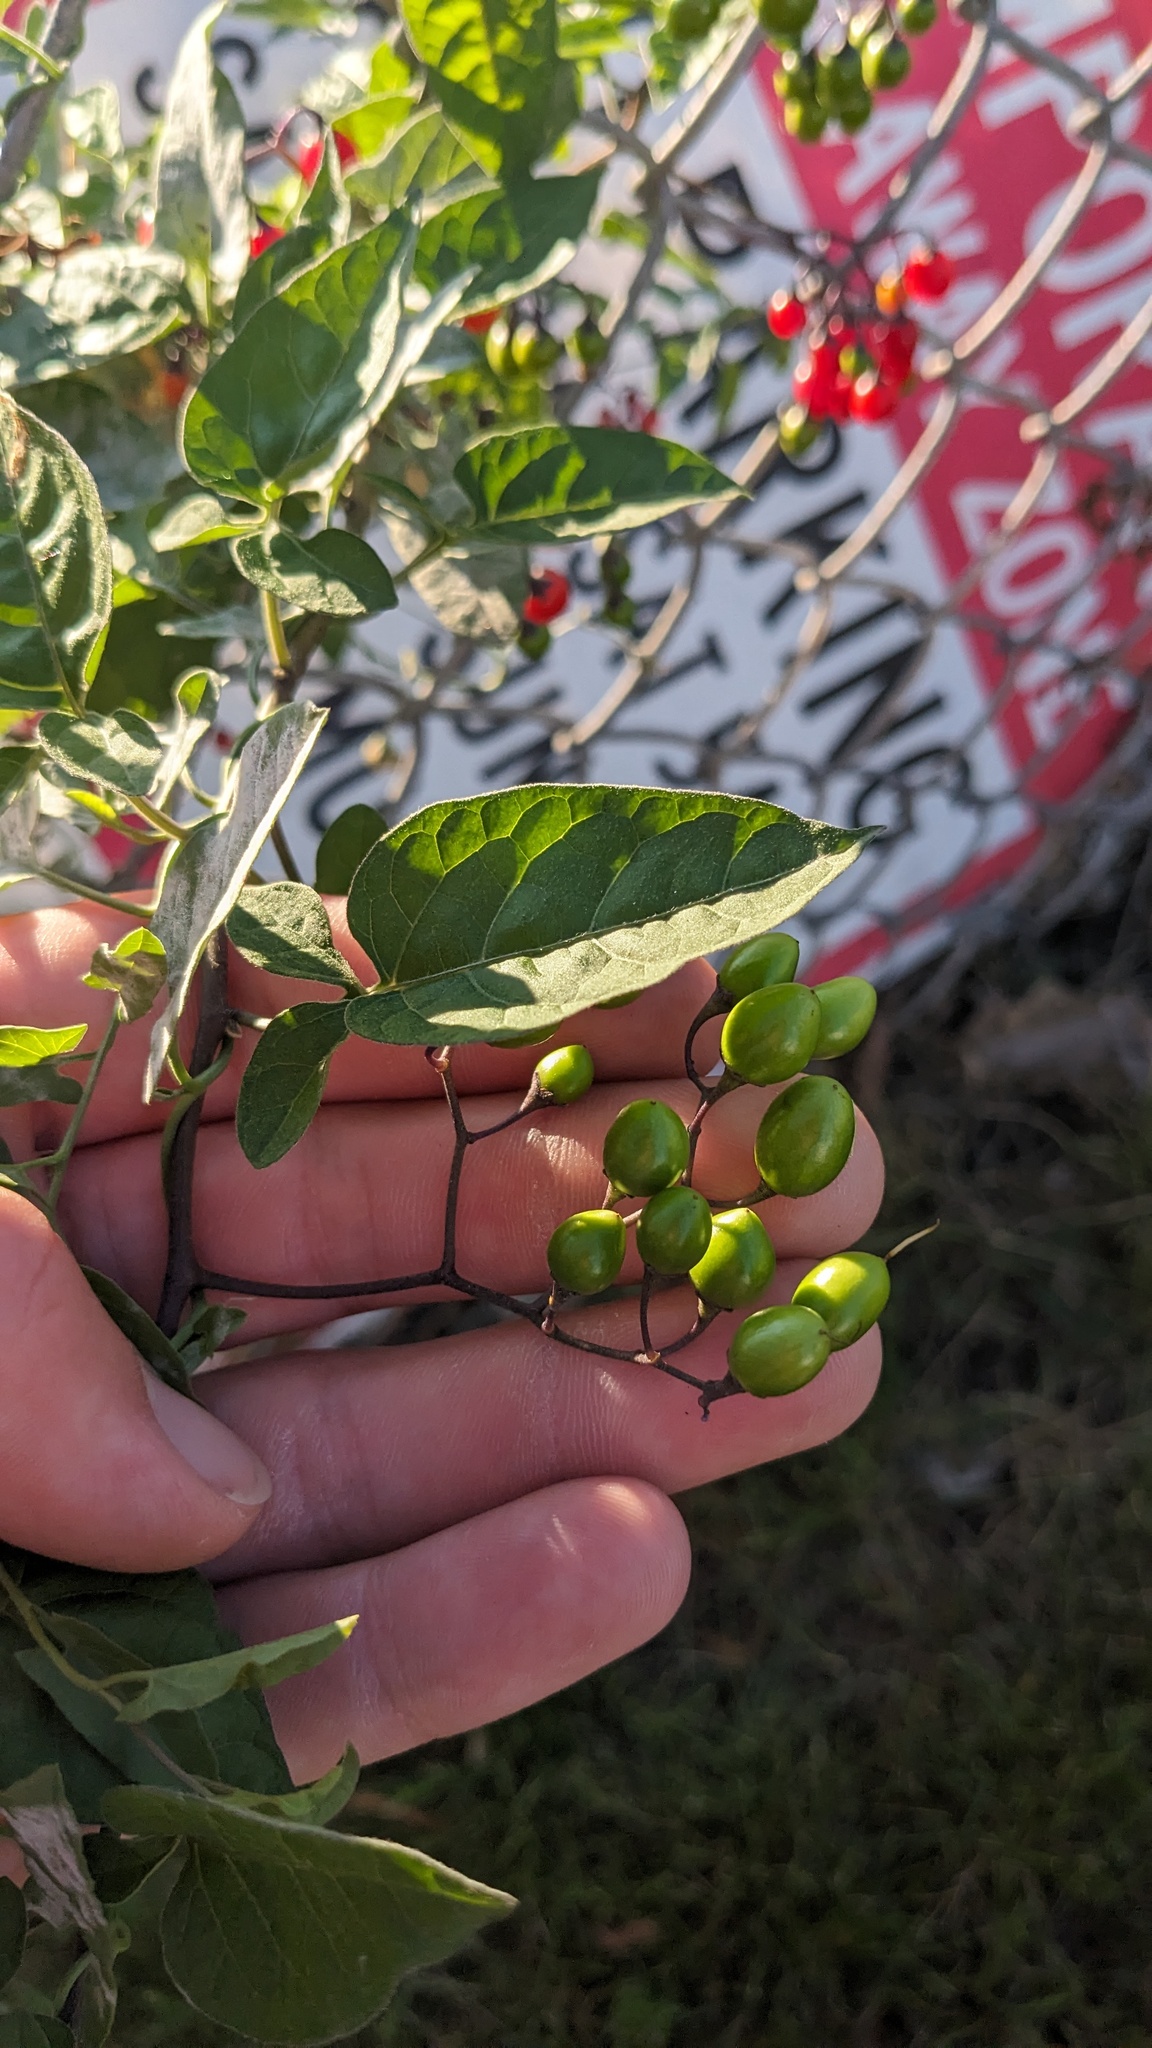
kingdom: Plantae
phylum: Tracheophyta
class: Magnoliopsida
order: Solanales
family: Solanaceae
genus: Solanum
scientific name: Solanum dulcamara
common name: Climbing nightshade
